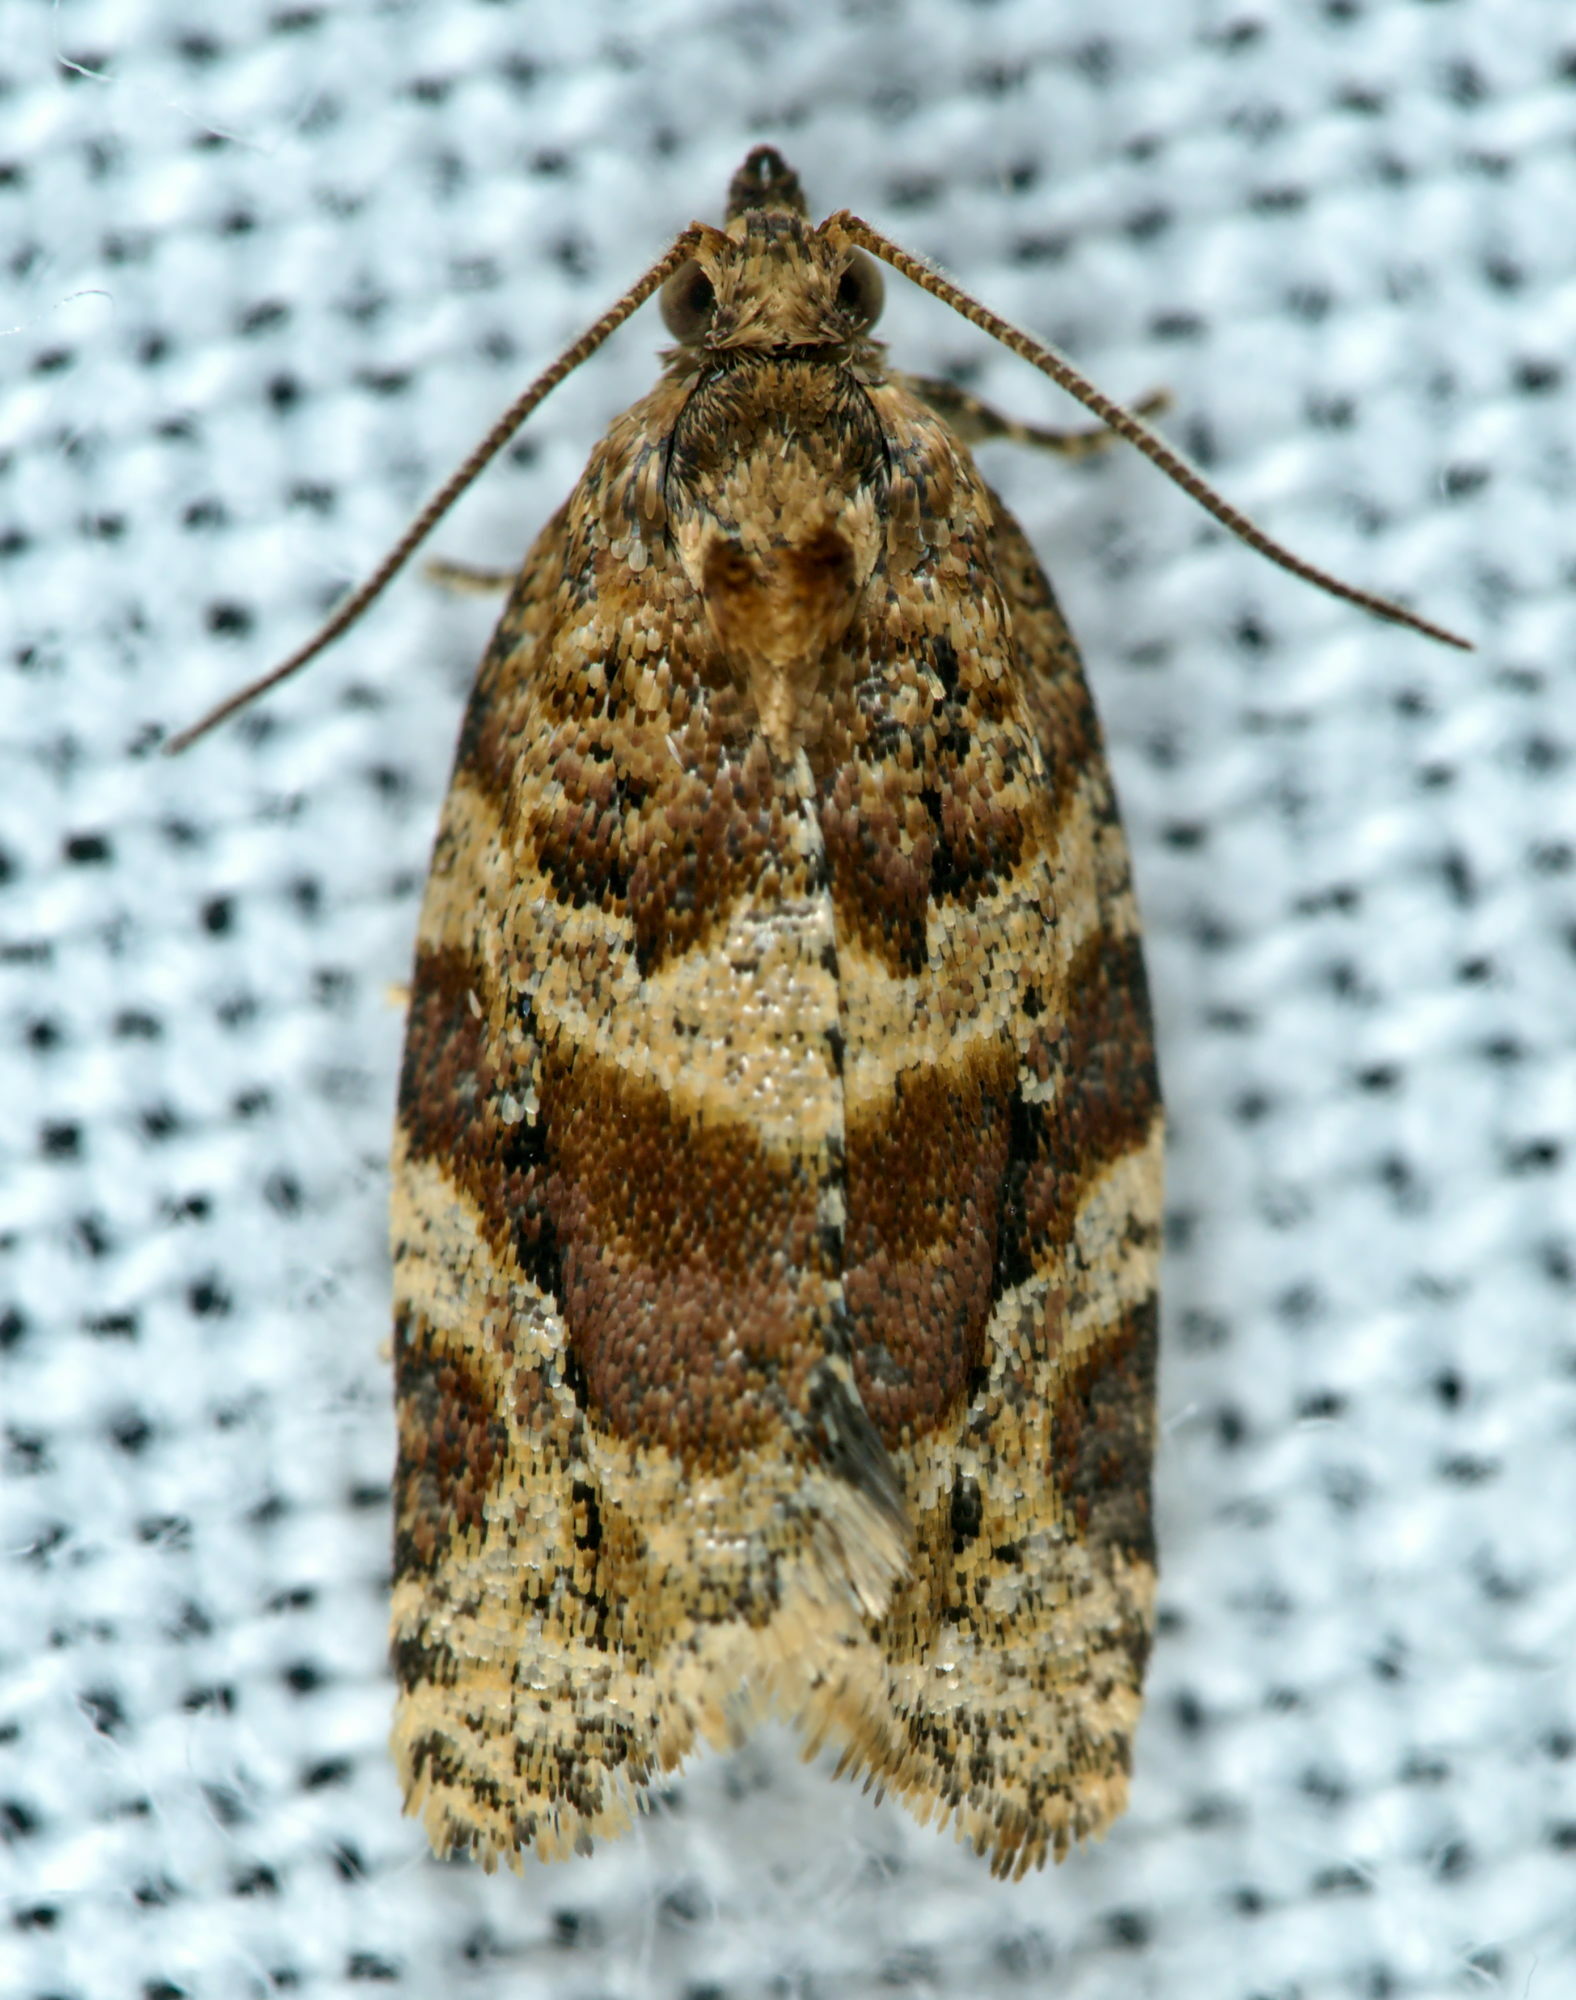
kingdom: Animalia
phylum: Arthropoda
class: Insecta
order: Lepidoptera
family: Tortricidae
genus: Argyrotaenia
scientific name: Argyrotaenia ljungiana
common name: Heather twist
